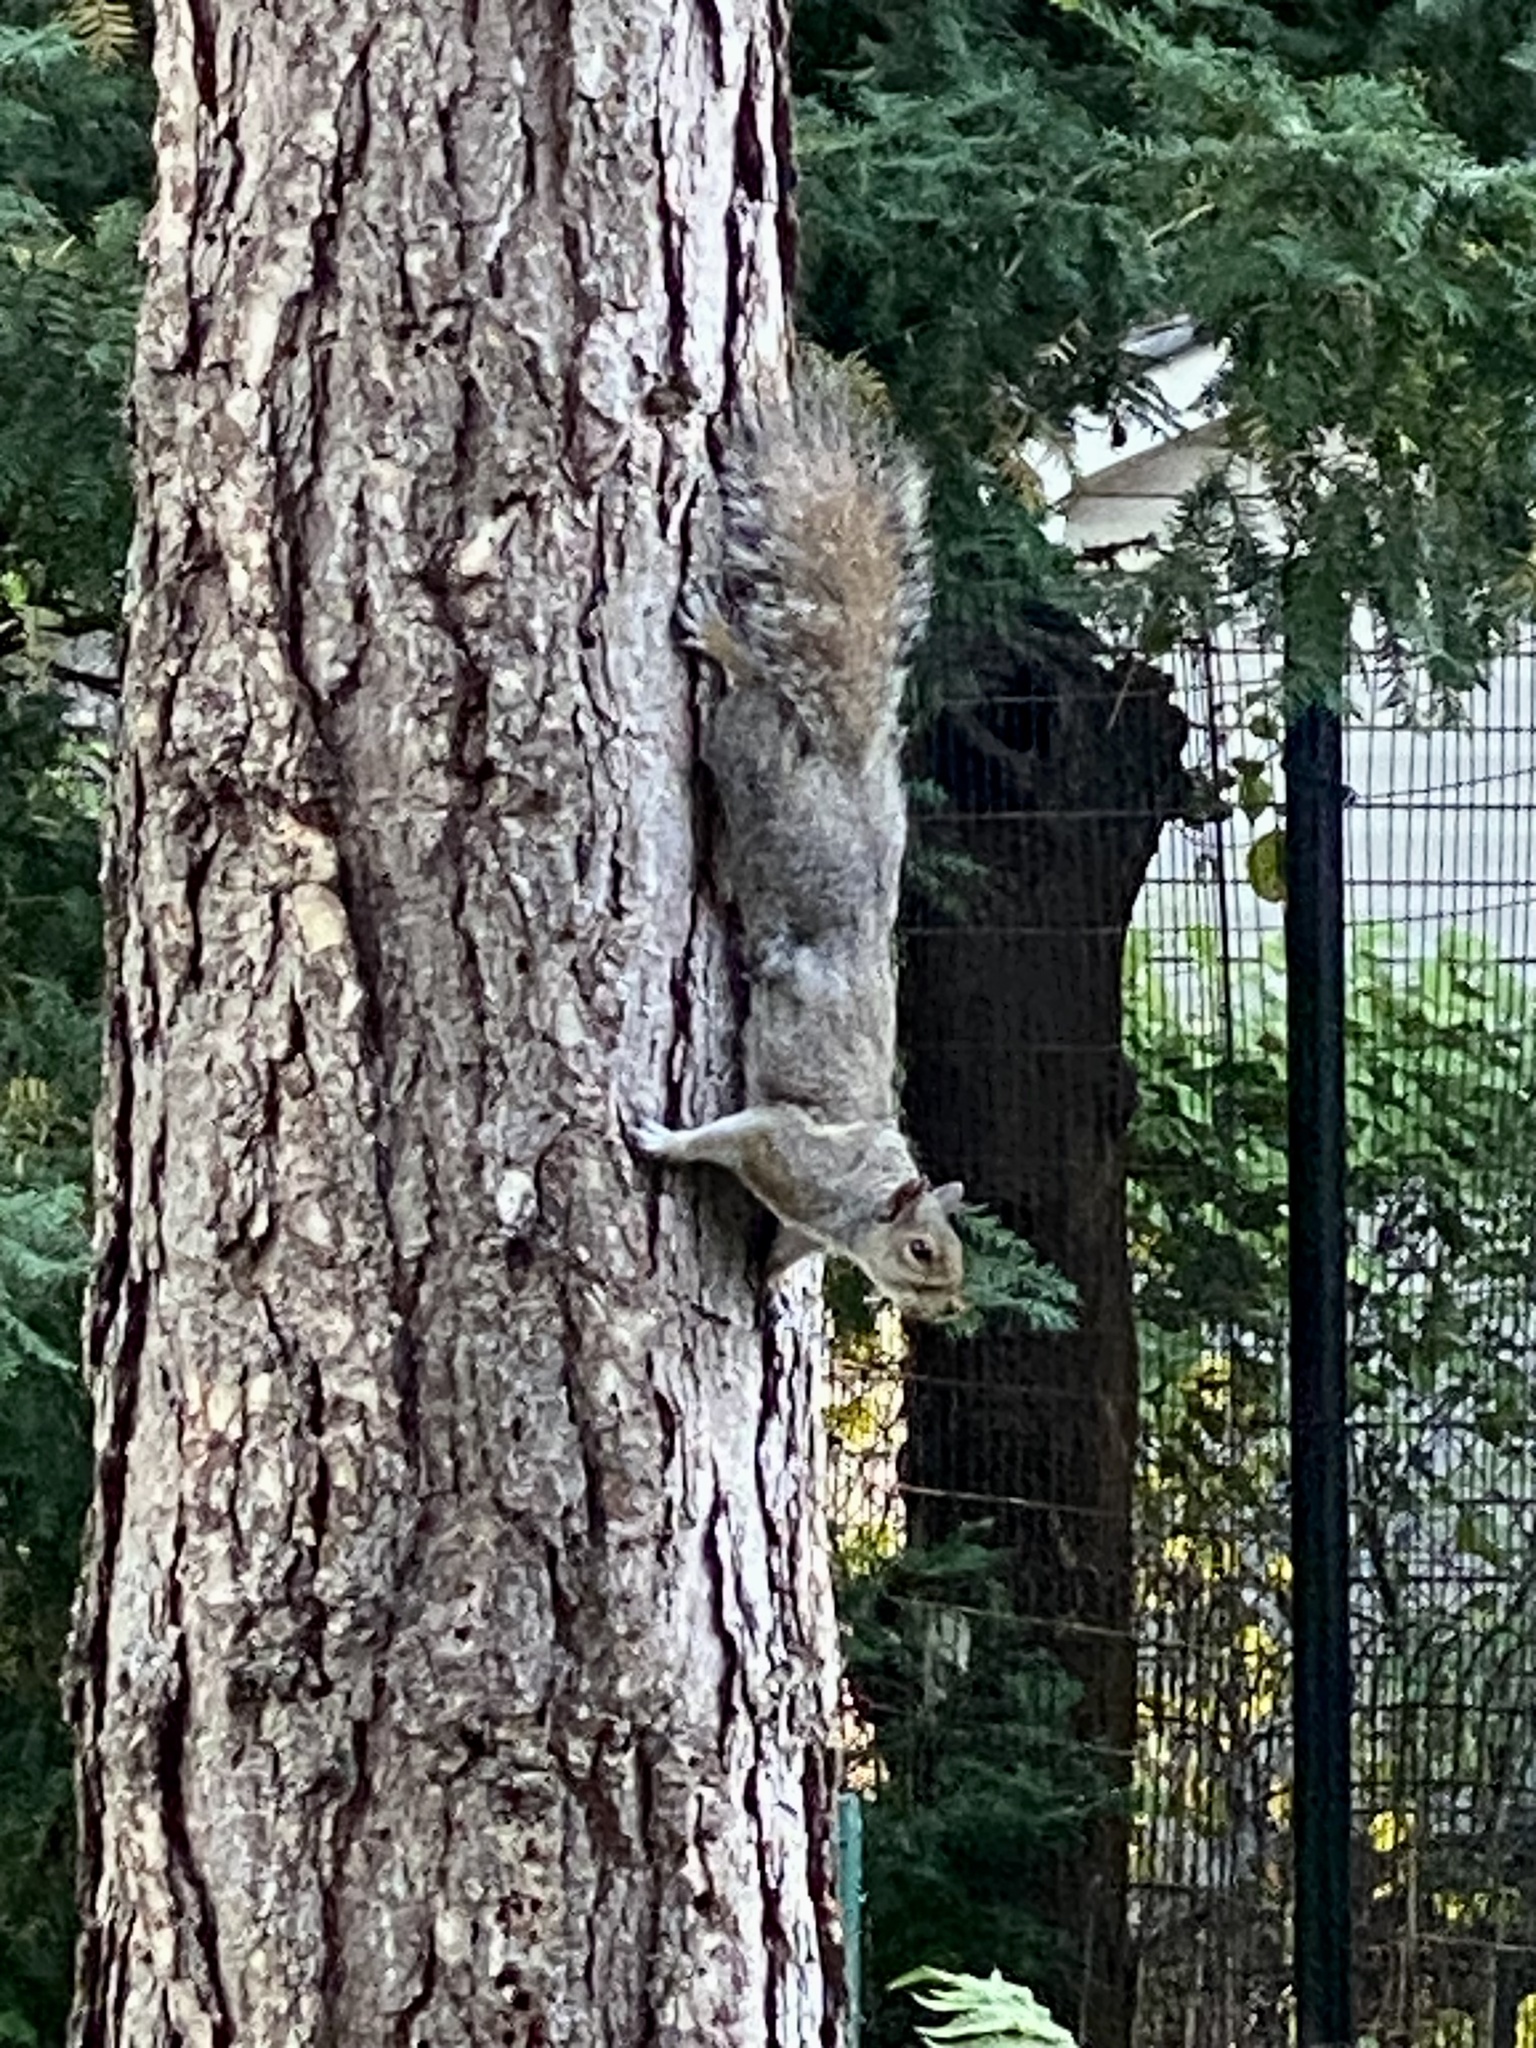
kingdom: Animalia
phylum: Chordata
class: Mammalia
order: Rodentia
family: Sciuridae
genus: Sciurus
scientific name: Sciurus carolinensis
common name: Eastern gray squirrel
